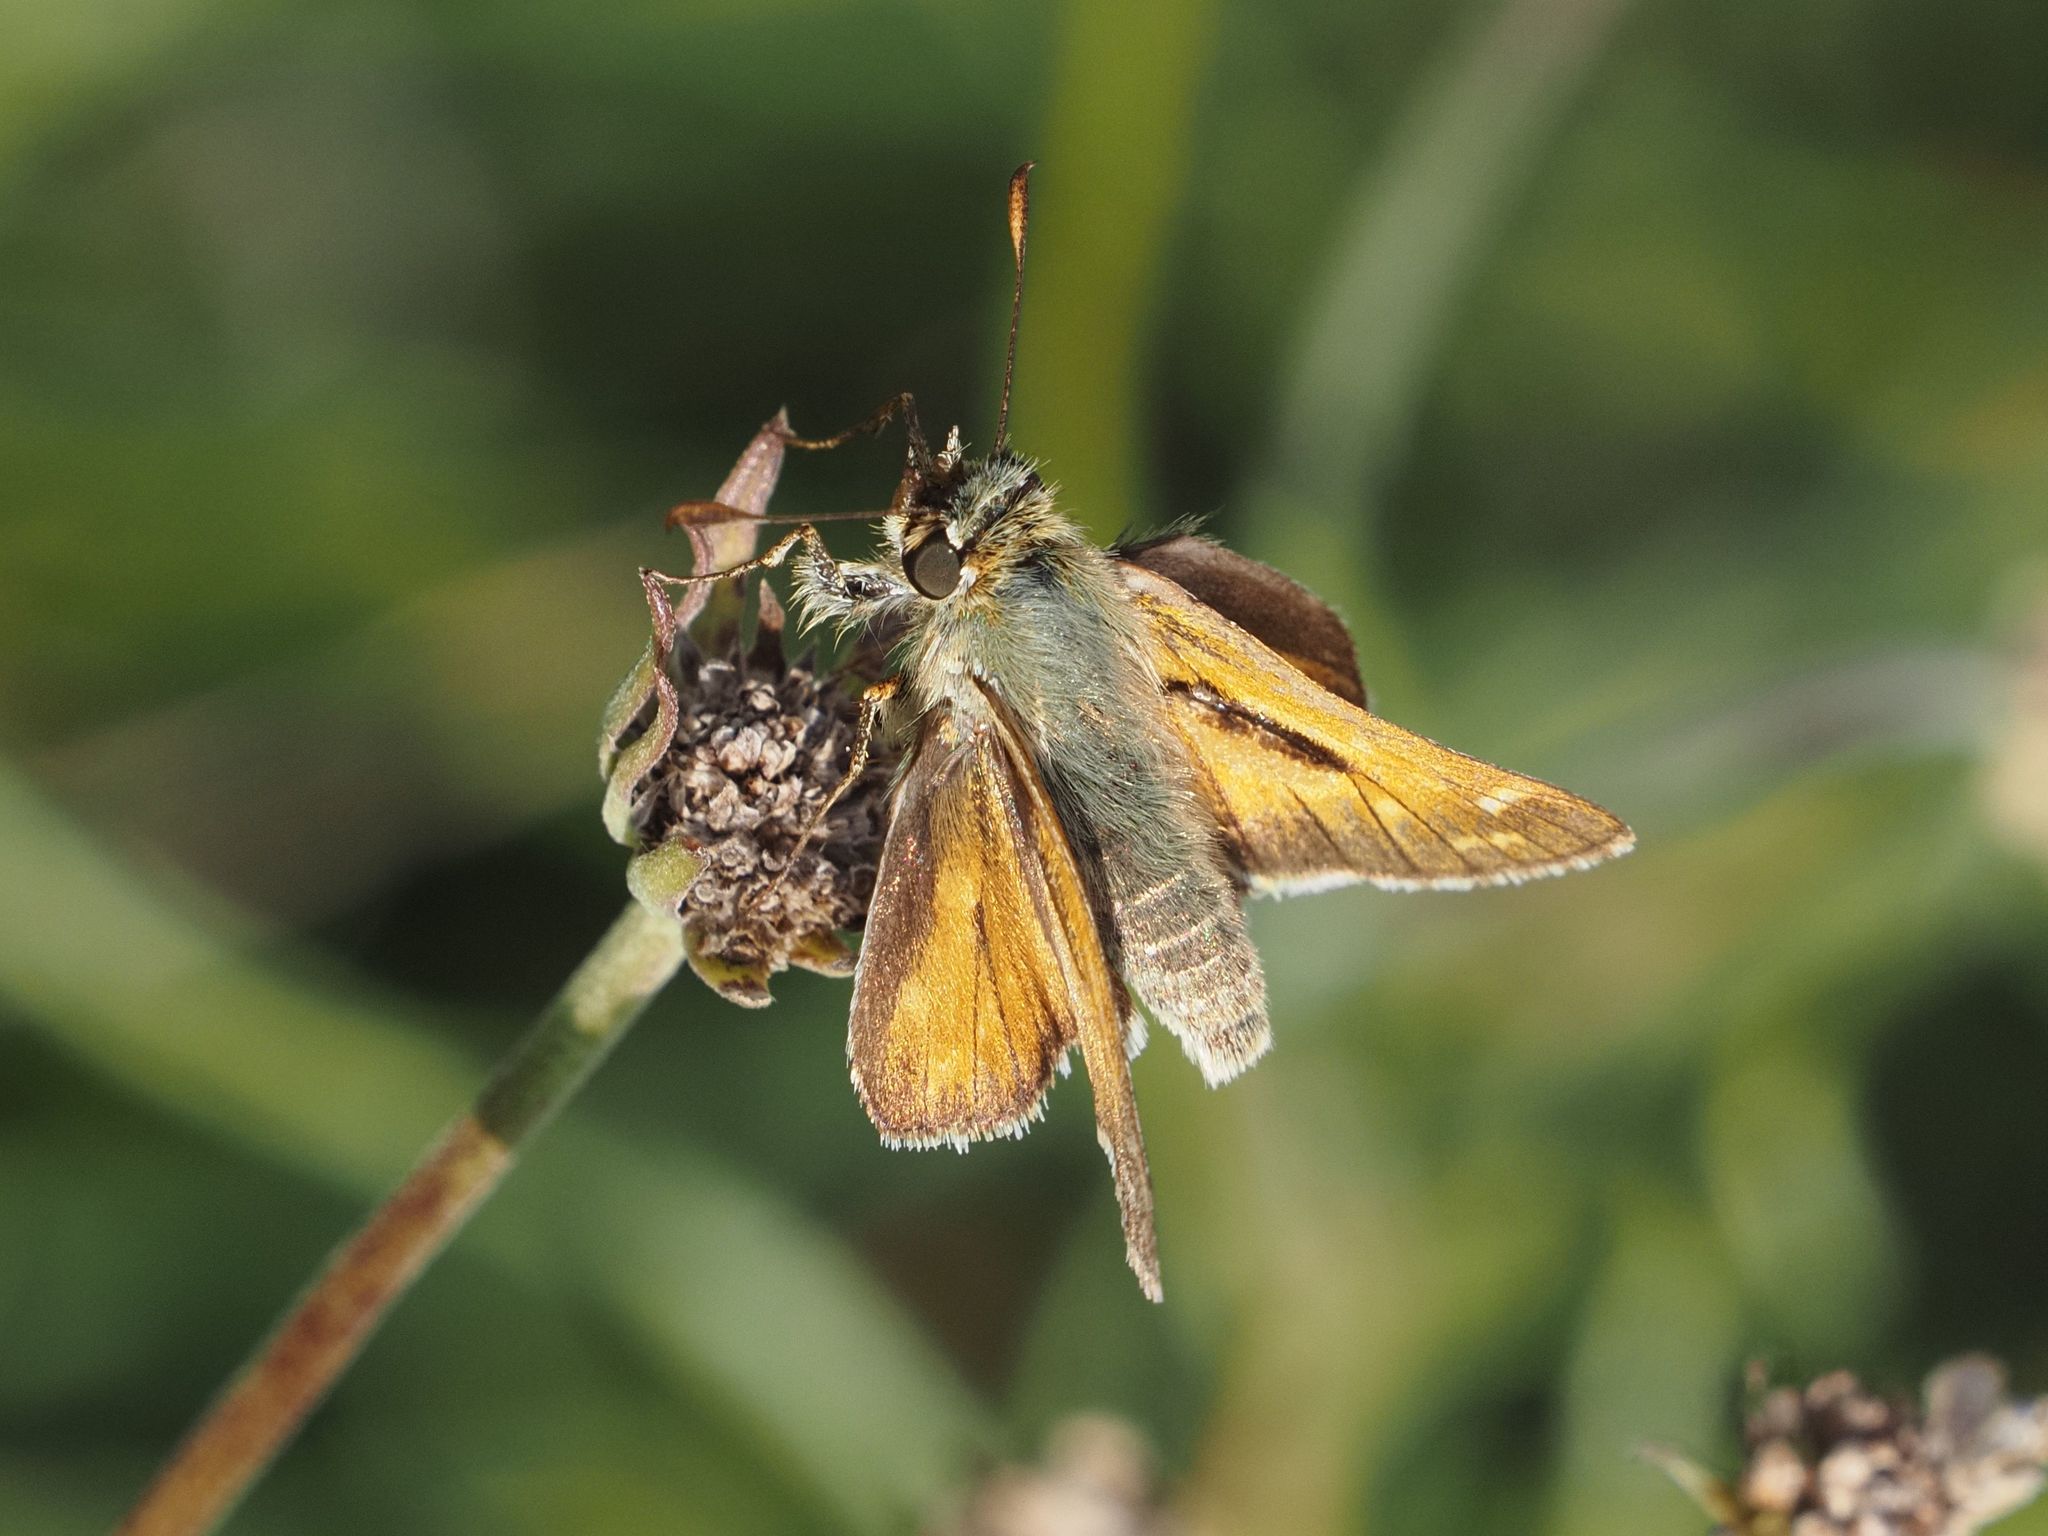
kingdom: Animalia
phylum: Arthropoda
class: Insecta
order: Lepidoptera
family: Hesperiidae
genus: Hesperia
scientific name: Hesperia comma
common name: Common branded skipper
